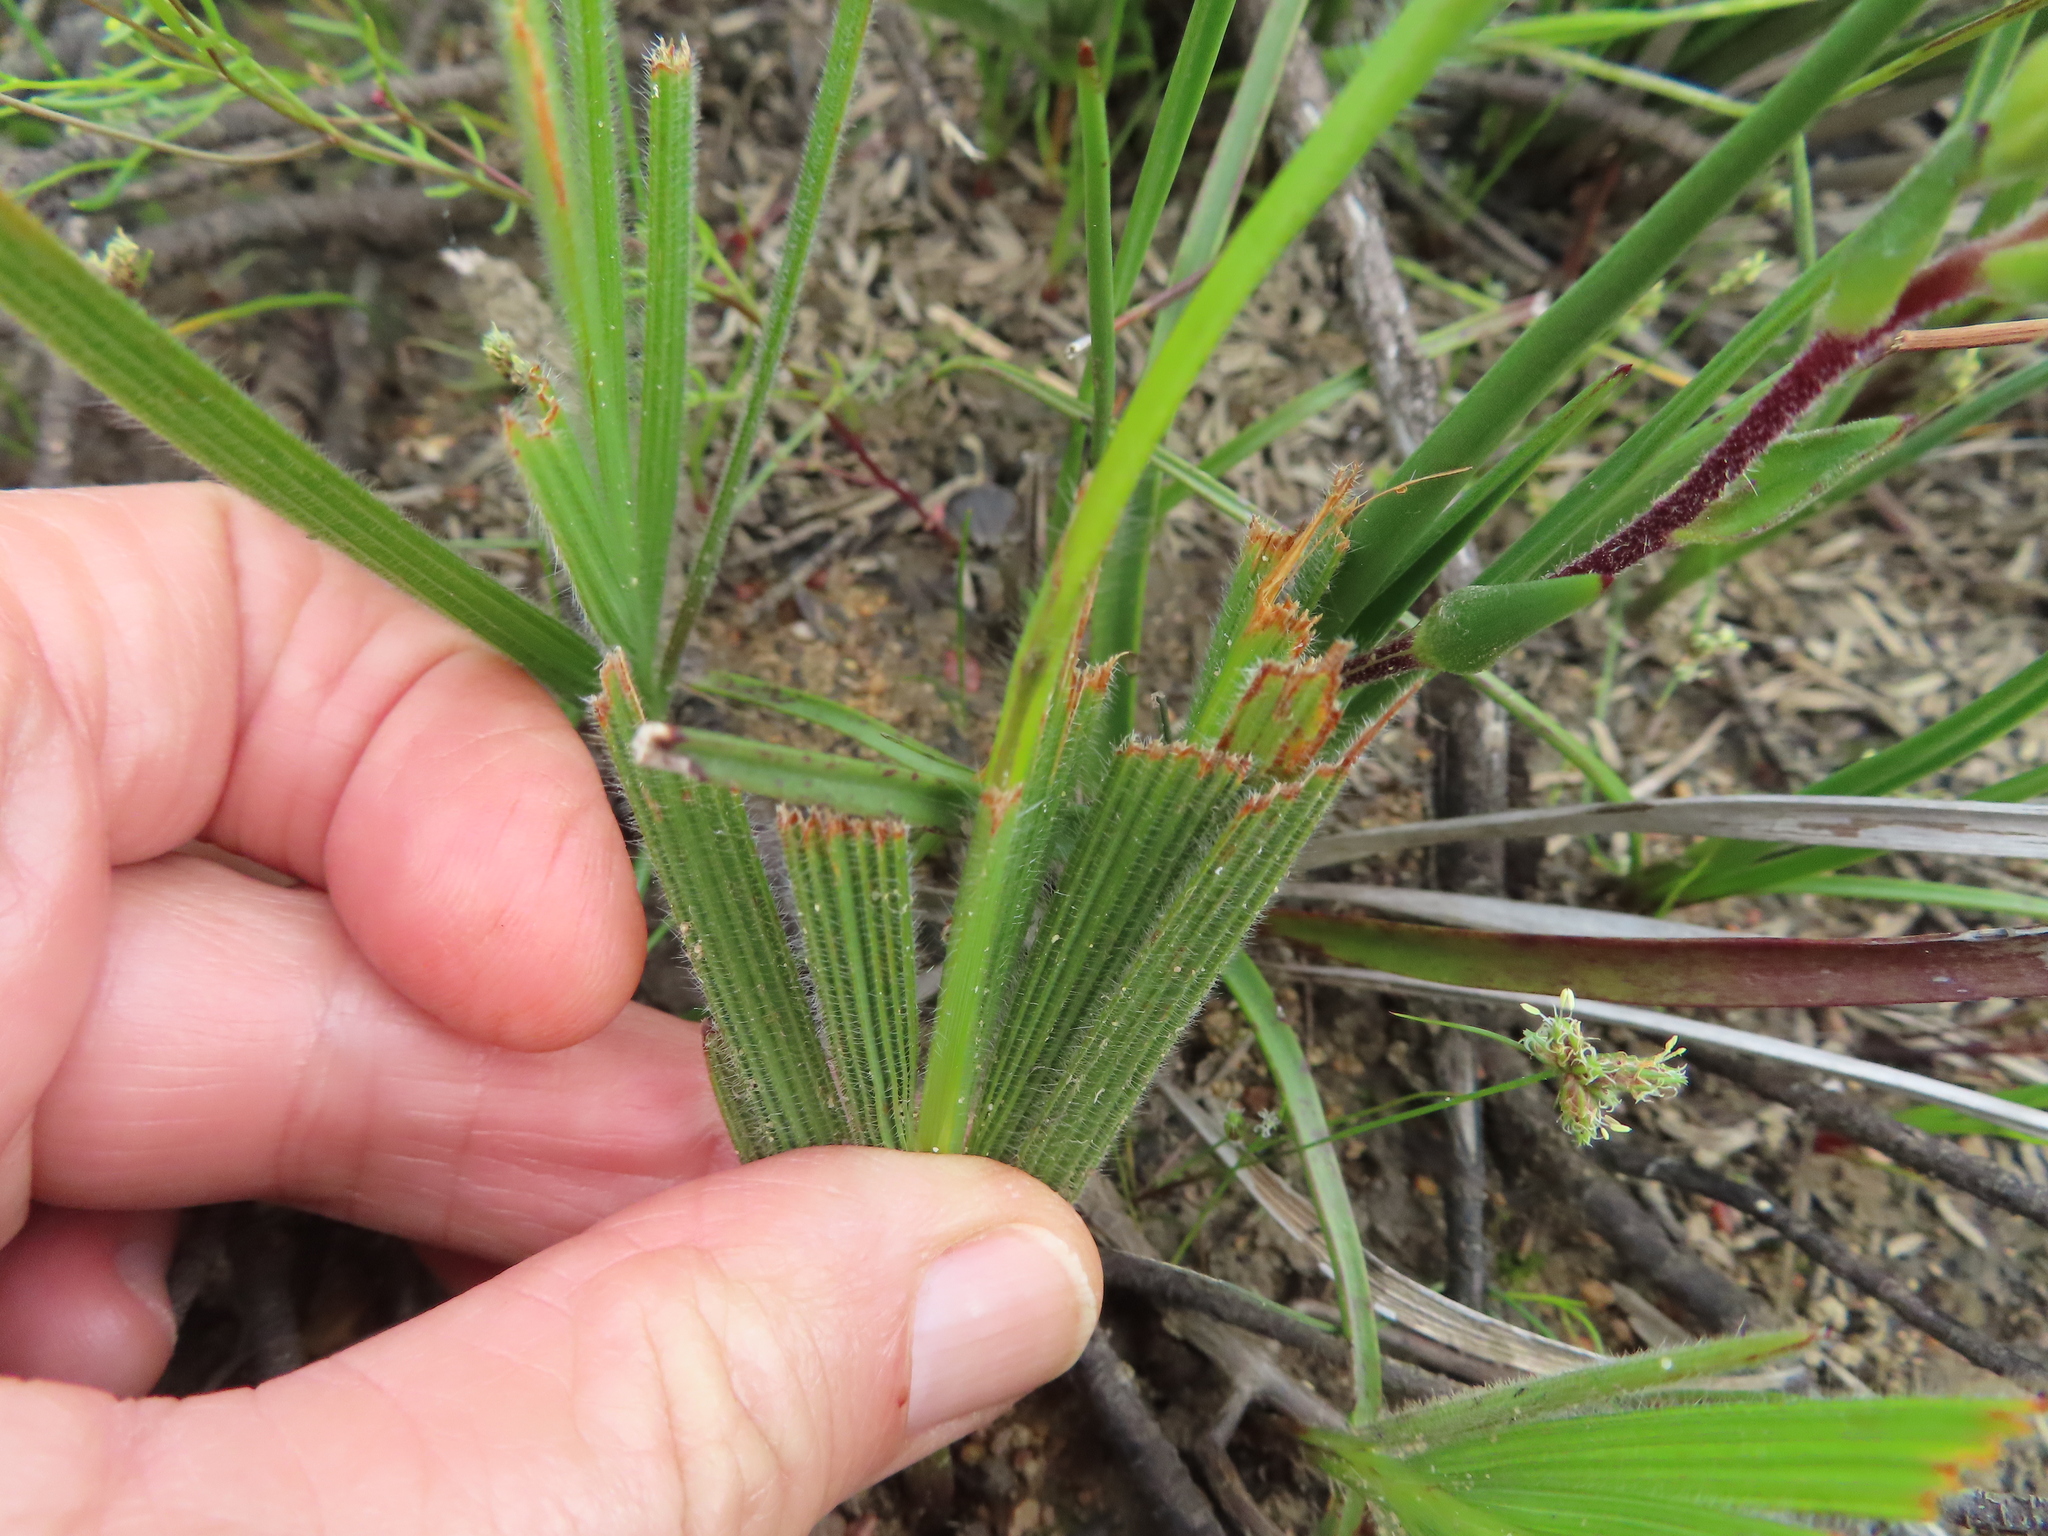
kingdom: Plantae
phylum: Tracheophyta
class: Liliopsida
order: Asparagales
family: Iridaceae
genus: Babiana
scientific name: Babiana secunda
